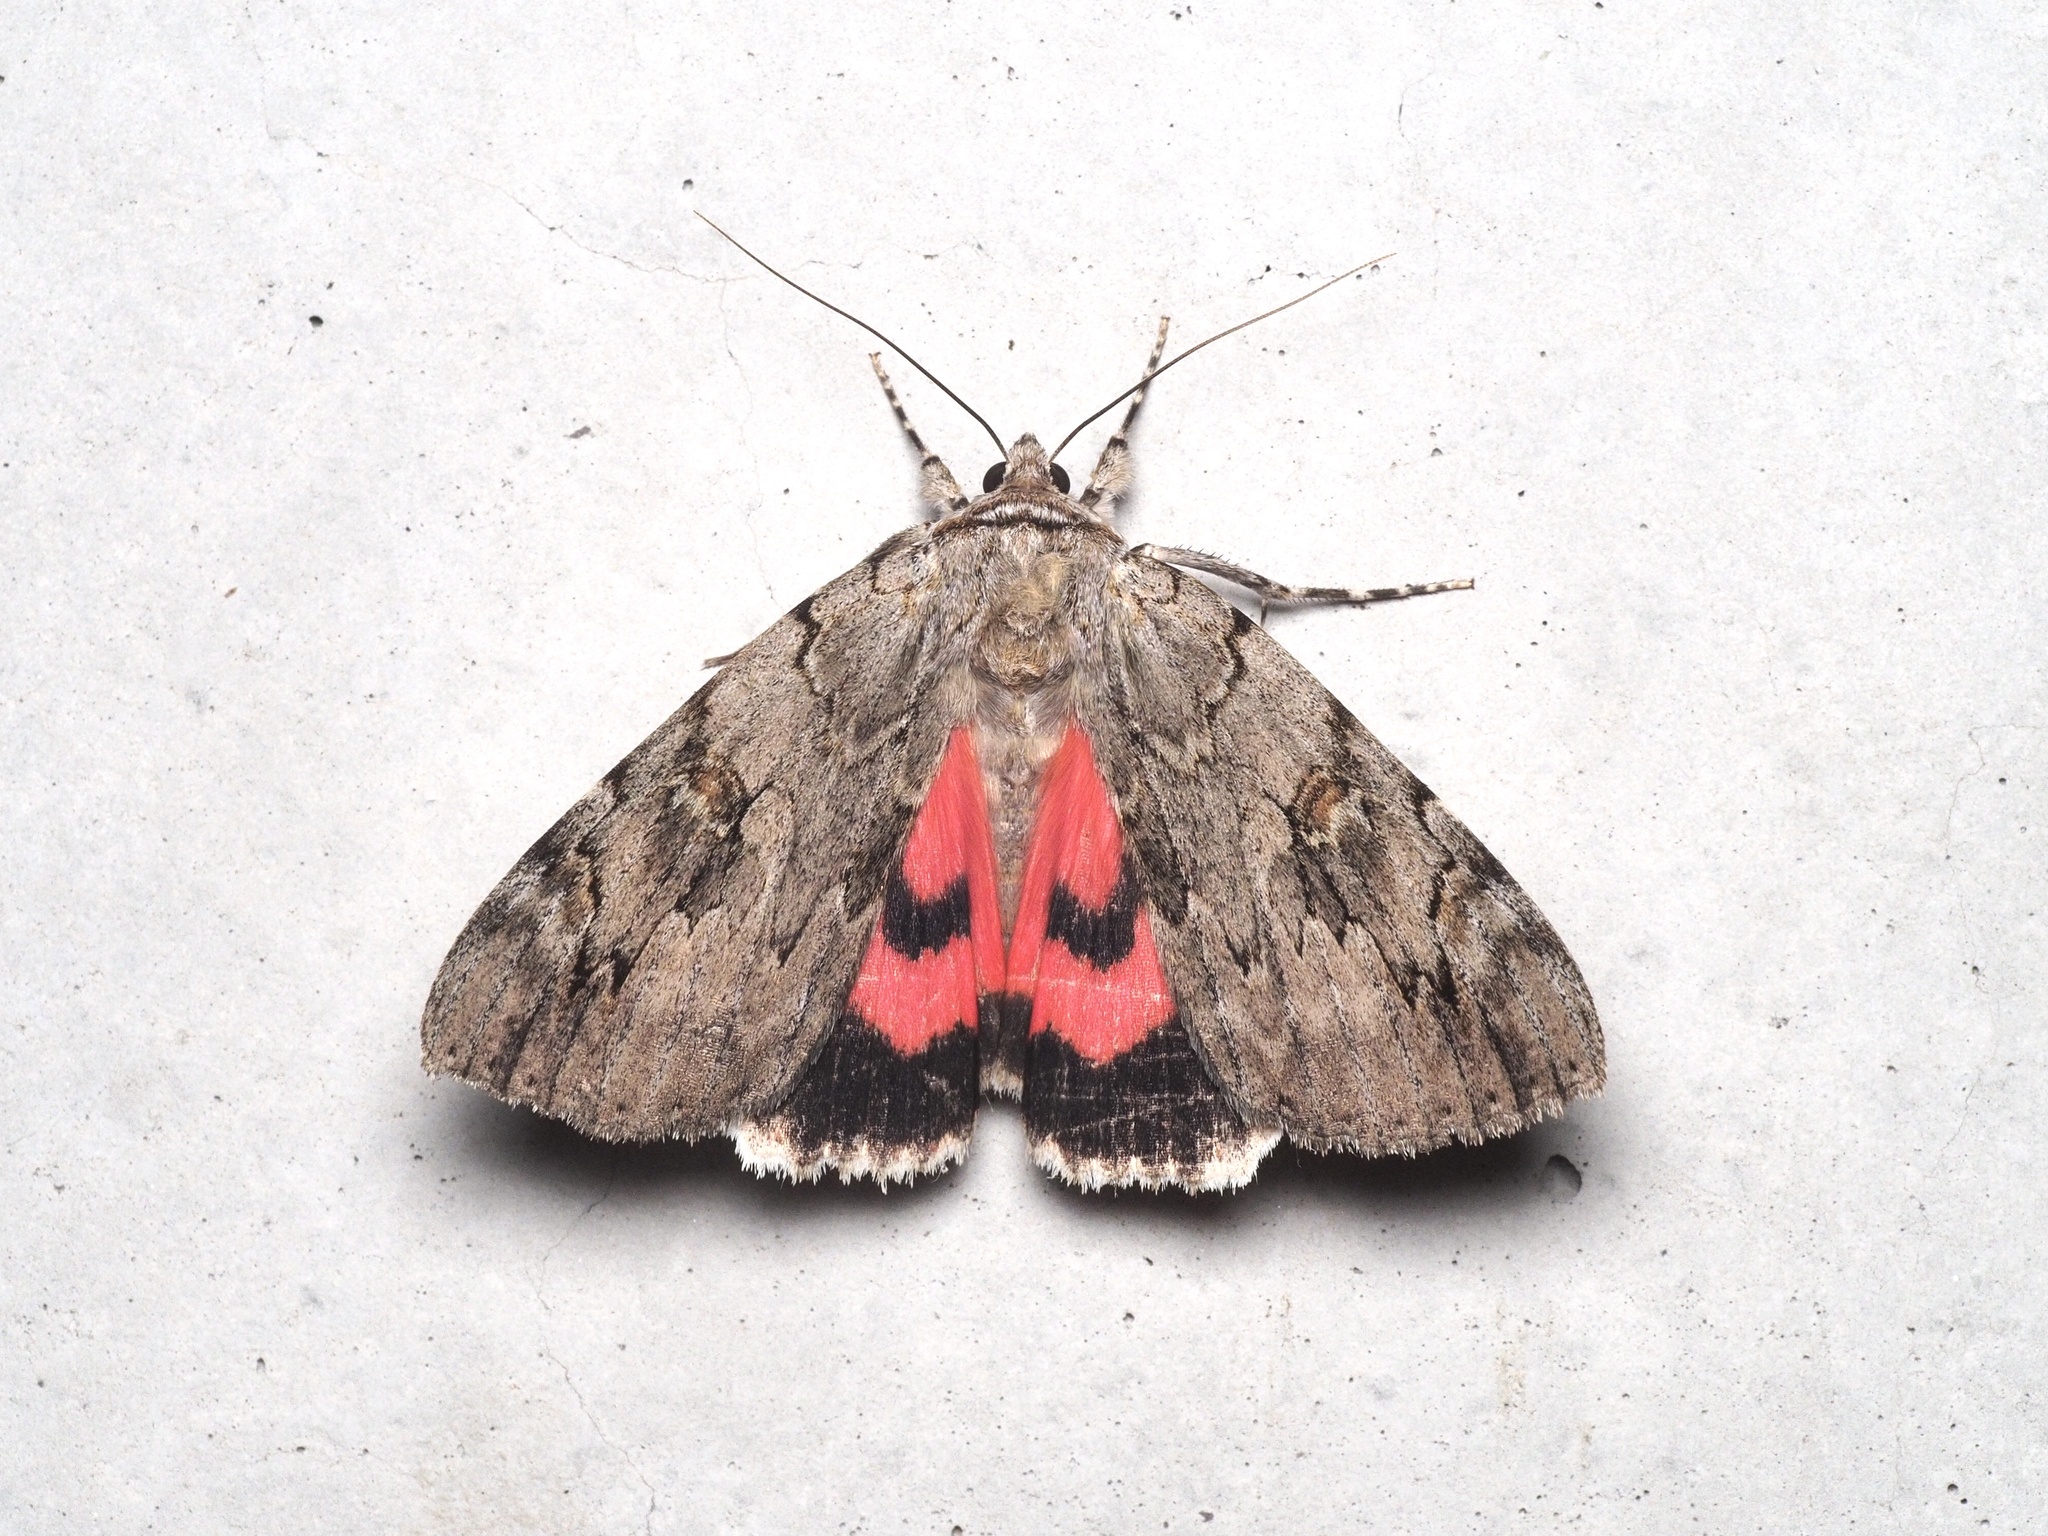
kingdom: Animalia
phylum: Arthropoda
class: Insecta
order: Lepidoptera
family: Erebidae
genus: Catocala
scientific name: Catocala electa
